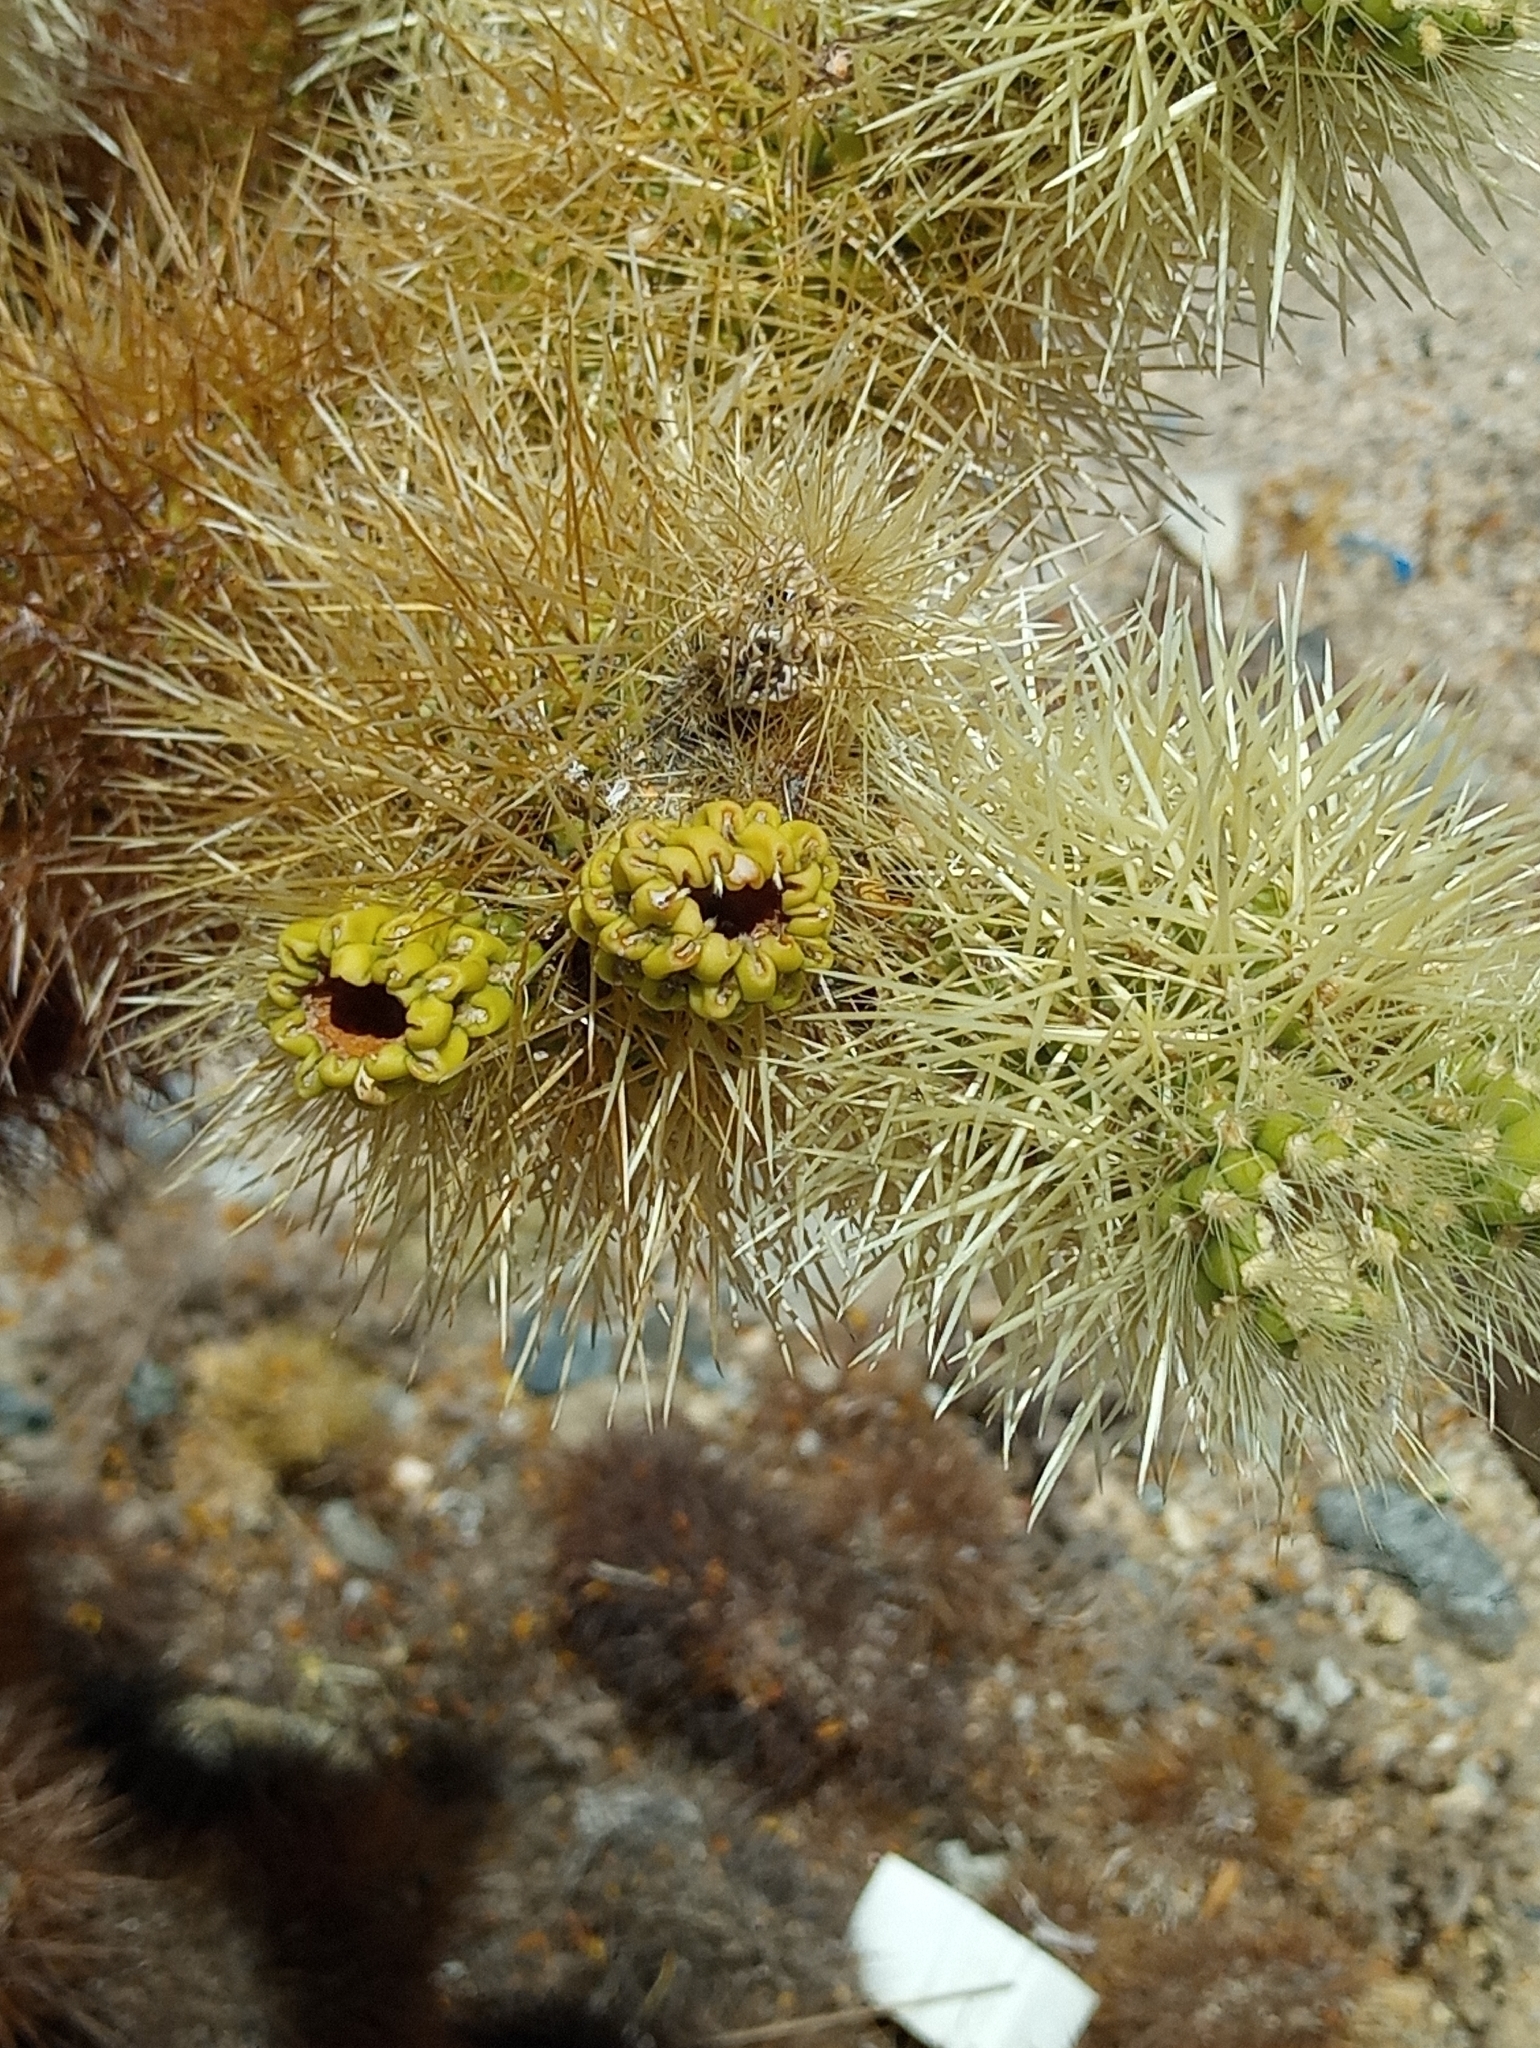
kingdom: Plantae
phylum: Tracheophyta
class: Magnoliopsida
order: Caryophyllales
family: Cactaceae
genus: Cylindropuntia
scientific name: Cylindropuntia fosbergii
